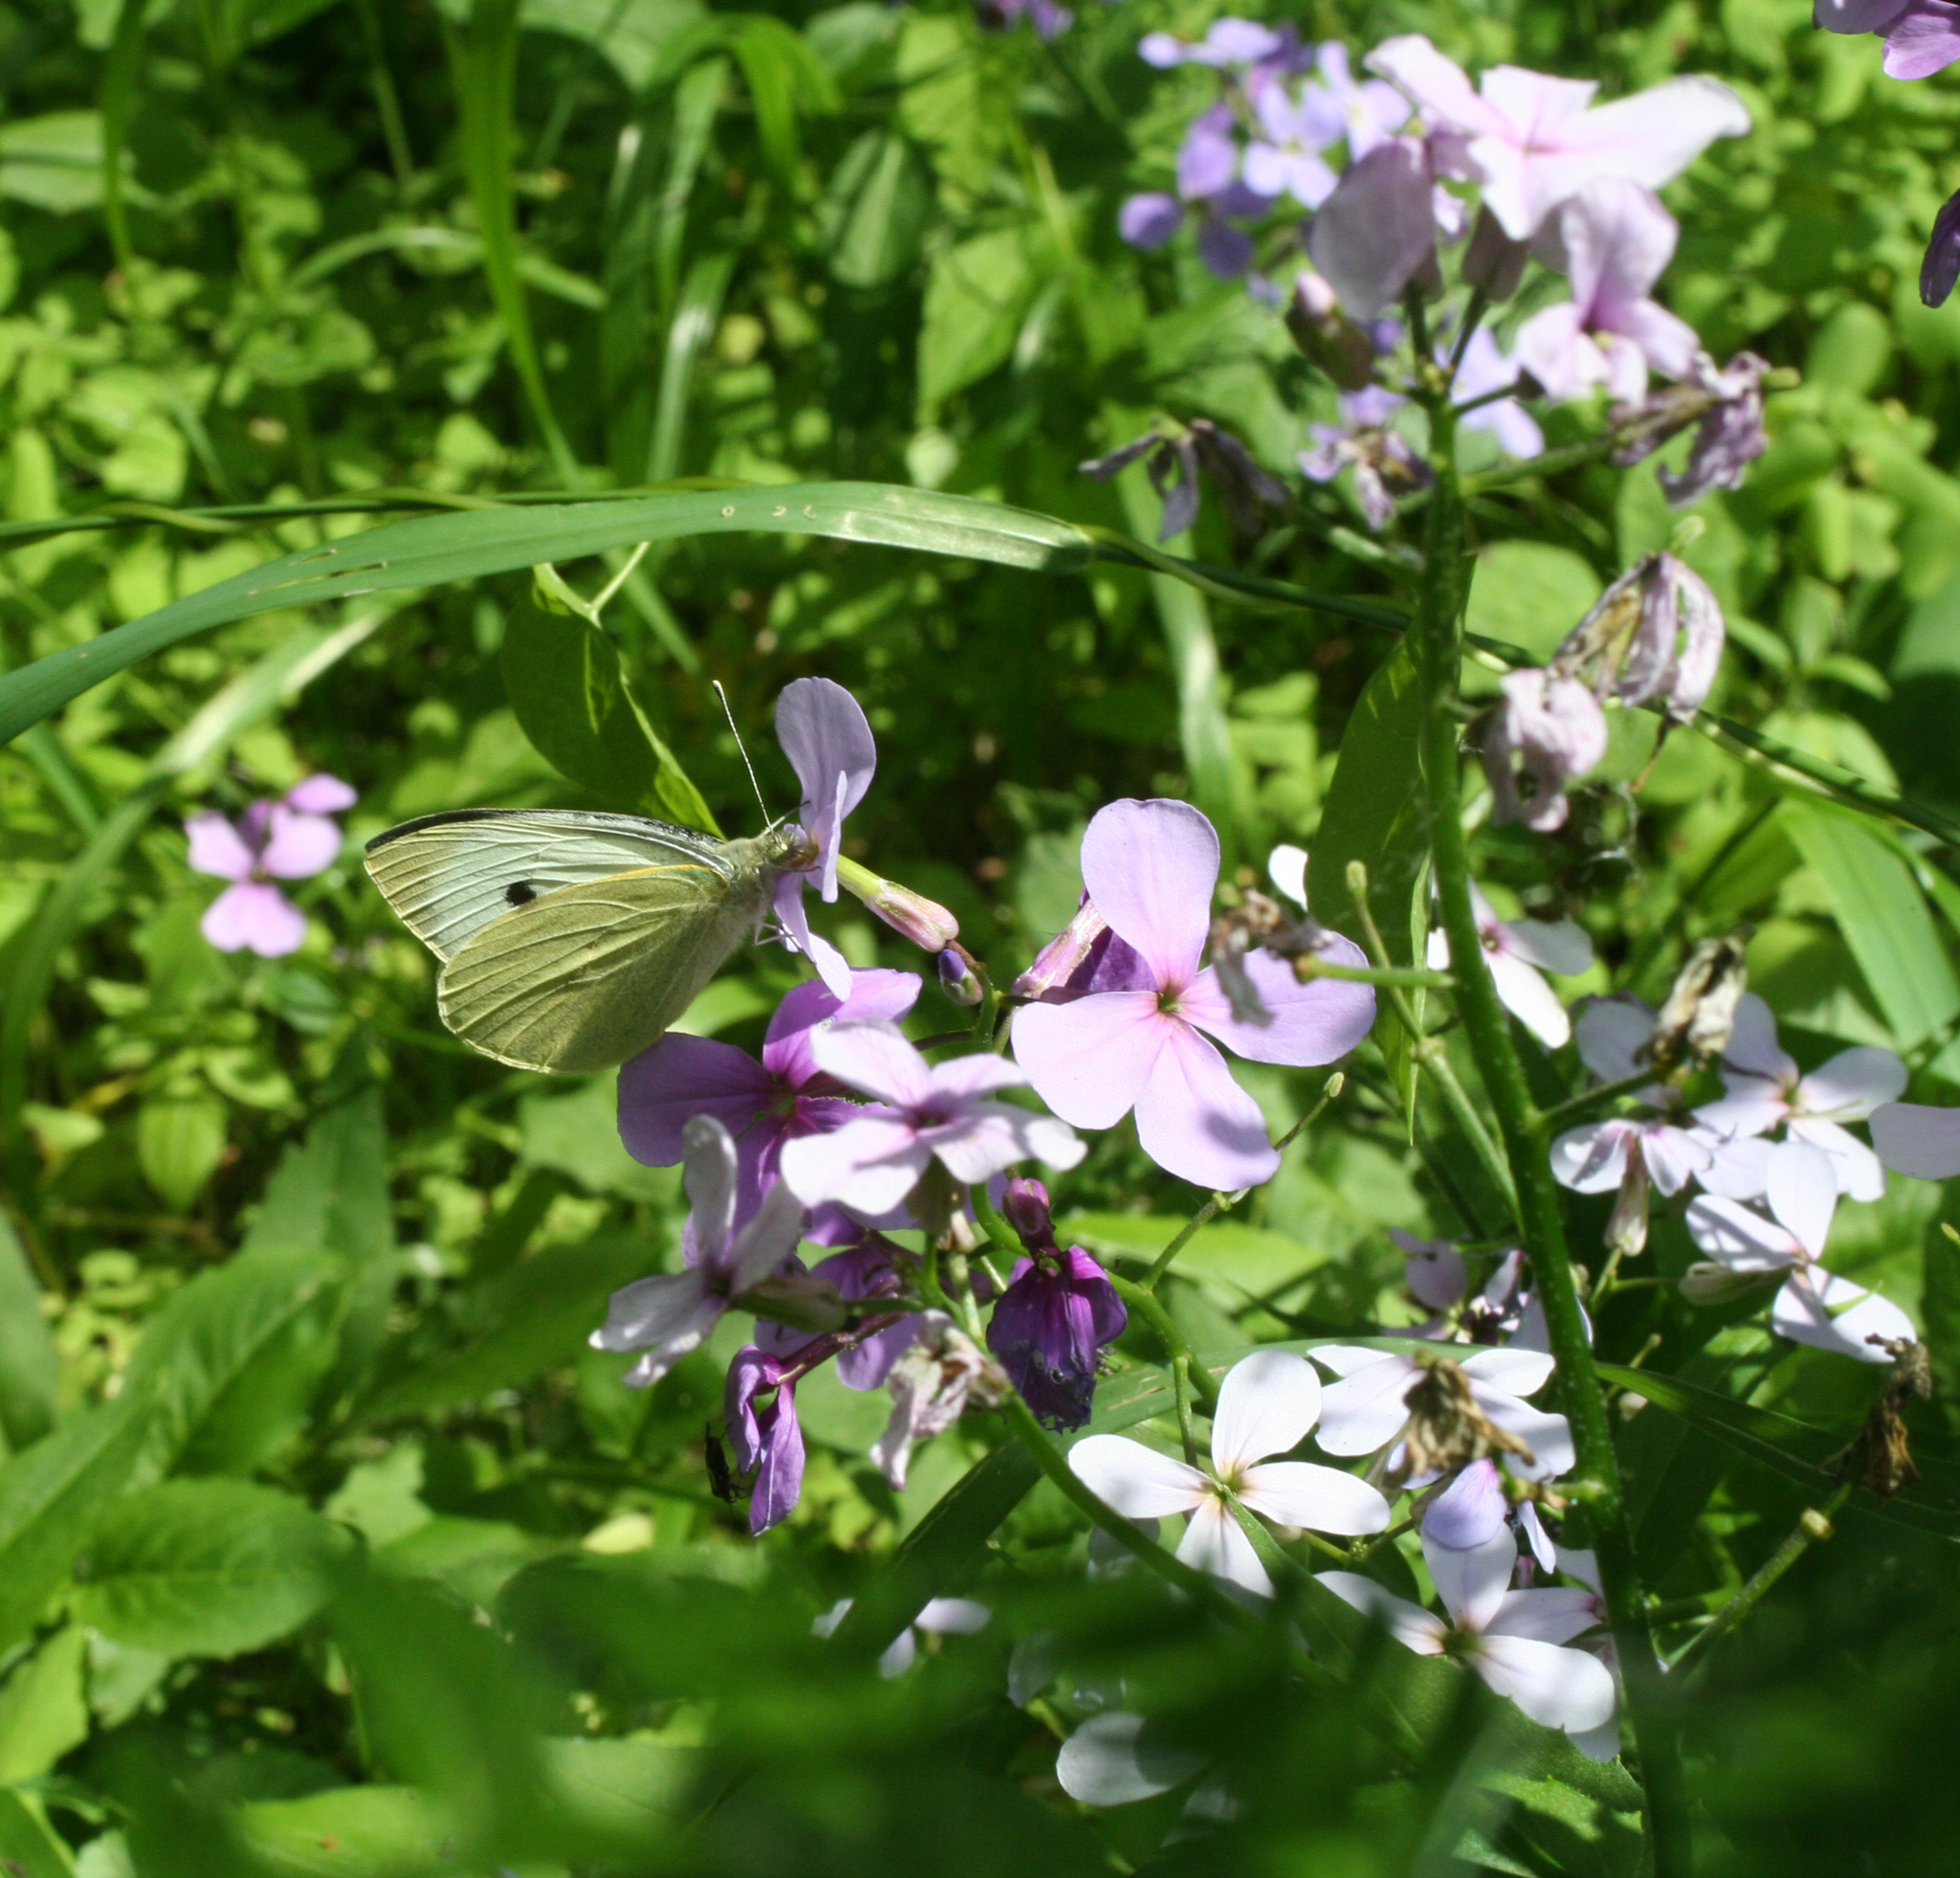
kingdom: Plantae
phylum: Tracheophyta
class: Magnoliopsida
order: Brassicales
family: Brassicaceae
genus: Hesperis
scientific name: Hesperis matronalis
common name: Dame's-violet
